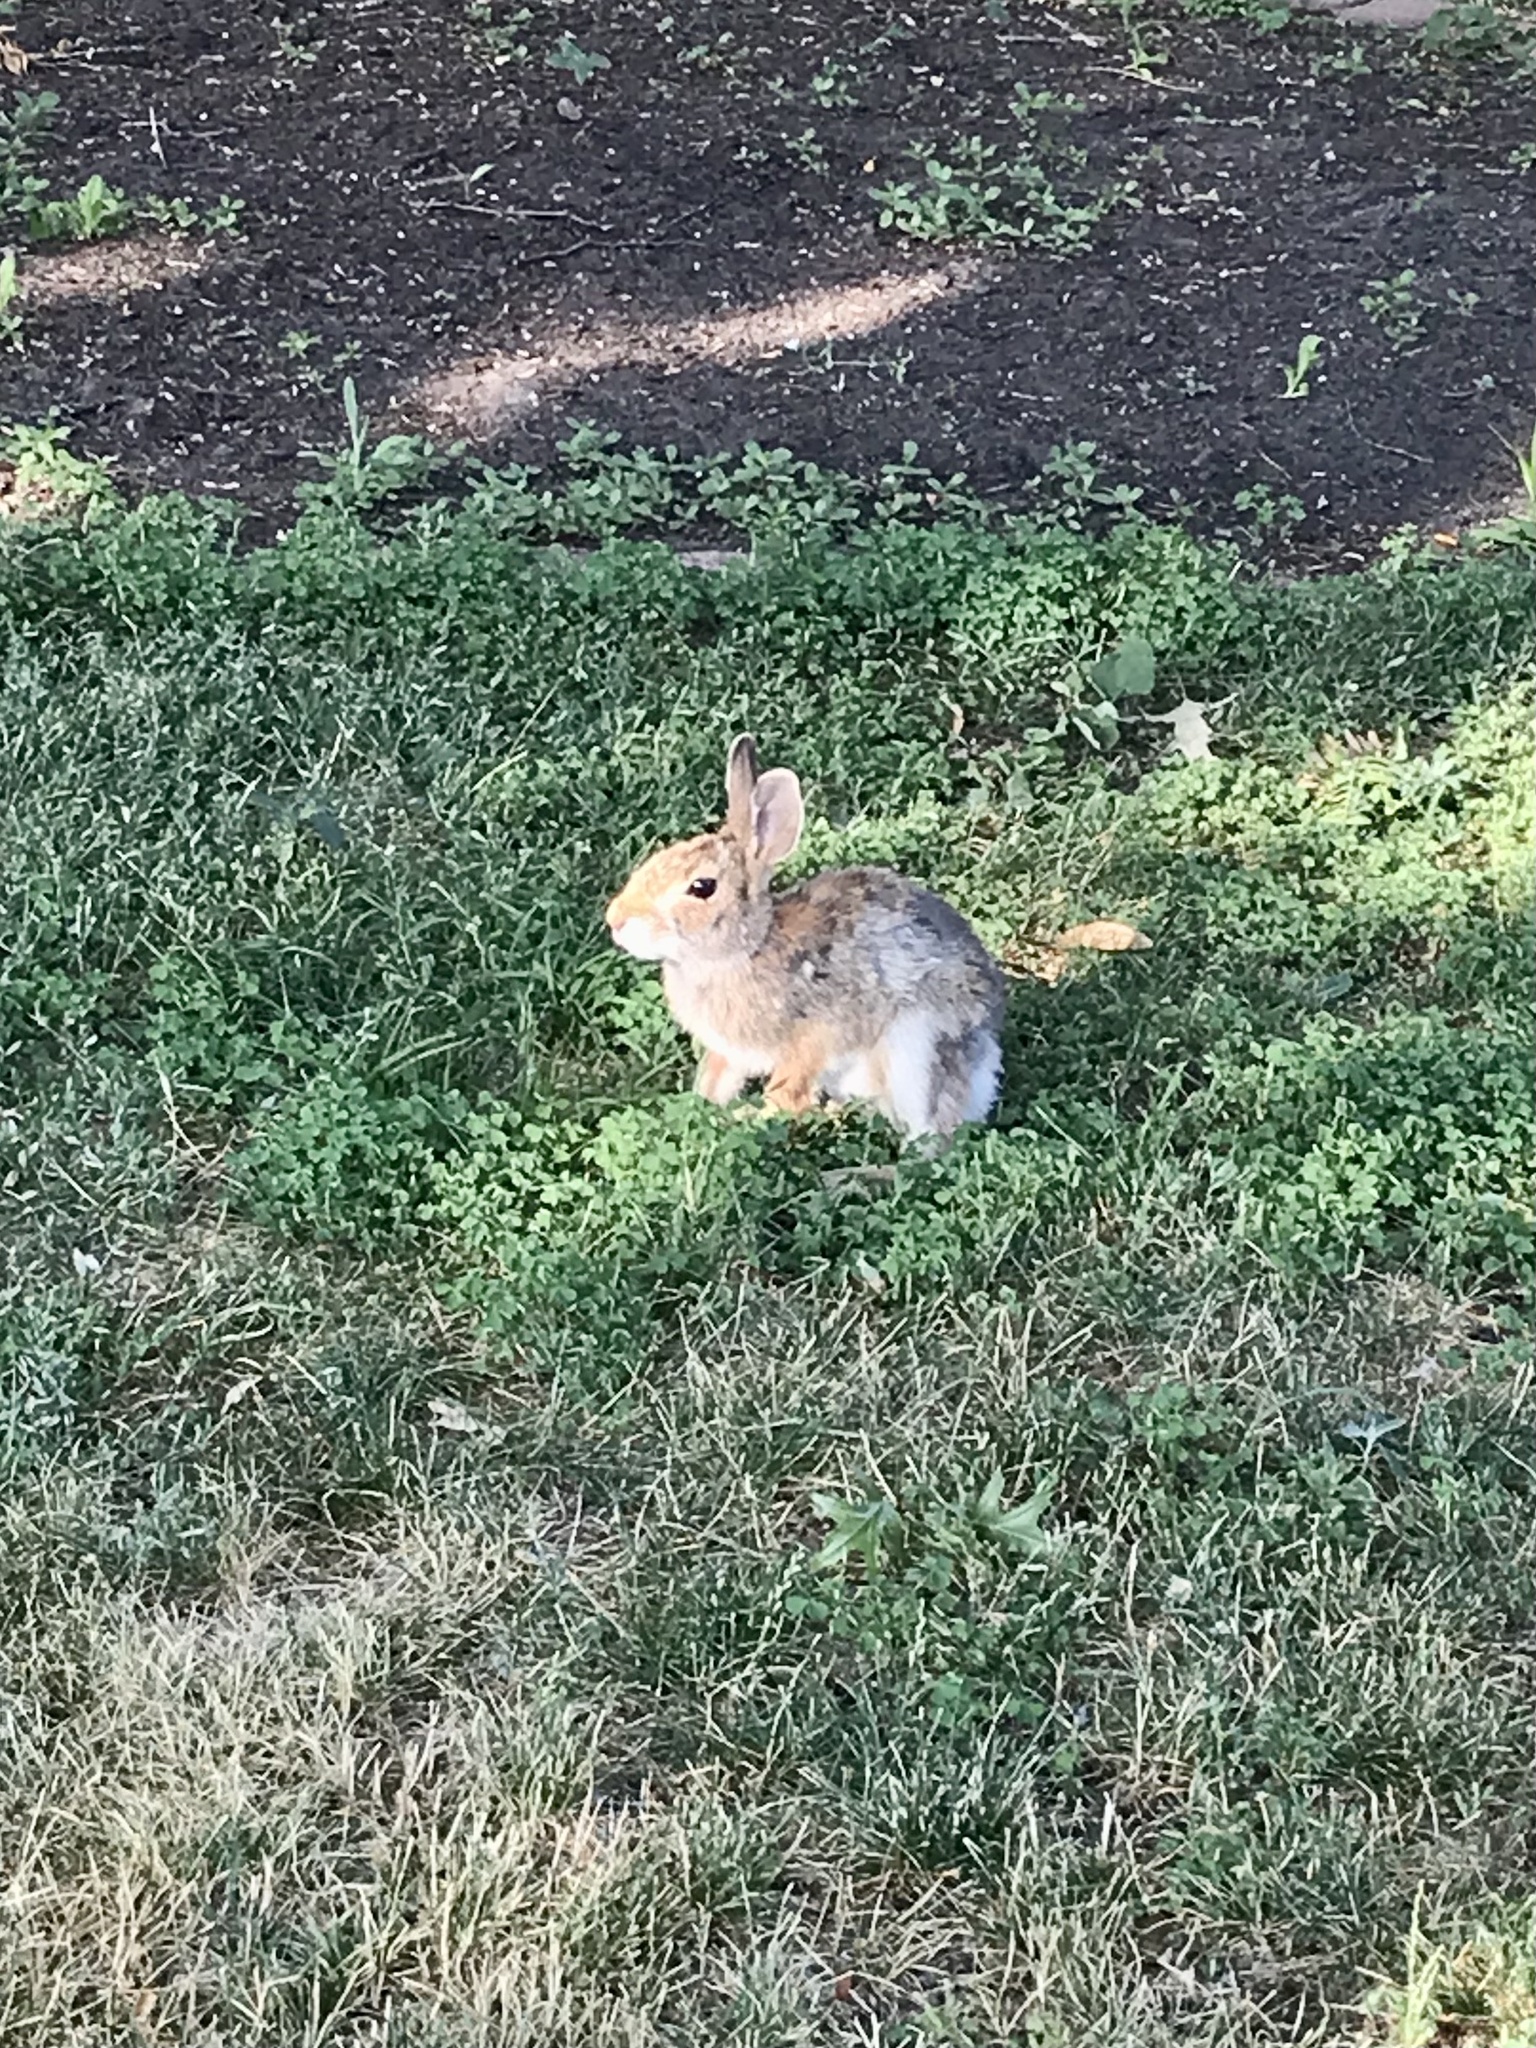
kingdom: Animalia
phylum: Chordata
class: Mammalia
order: Lagomorpha
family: Leporidae
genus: Sylvilagus
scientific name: Sylvilagus floridanus
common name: Eastern cottontail
